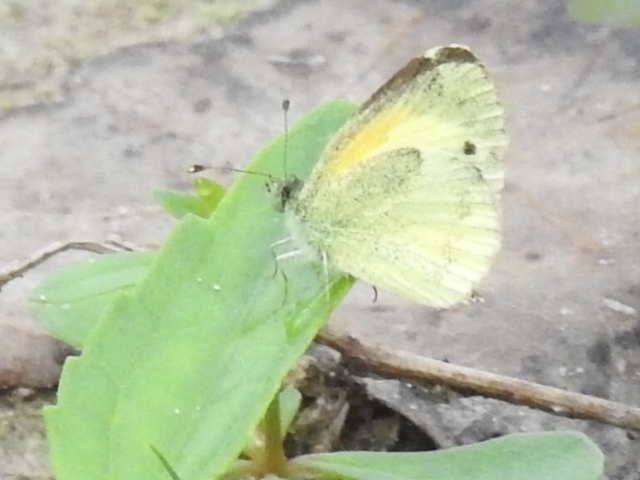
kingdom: Animalia
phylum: Arthropoda
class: Insecta
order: Lepidoptera
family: Pieridae
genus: Nathalis
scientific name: Nathalis iole
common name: Dainty sulphur
